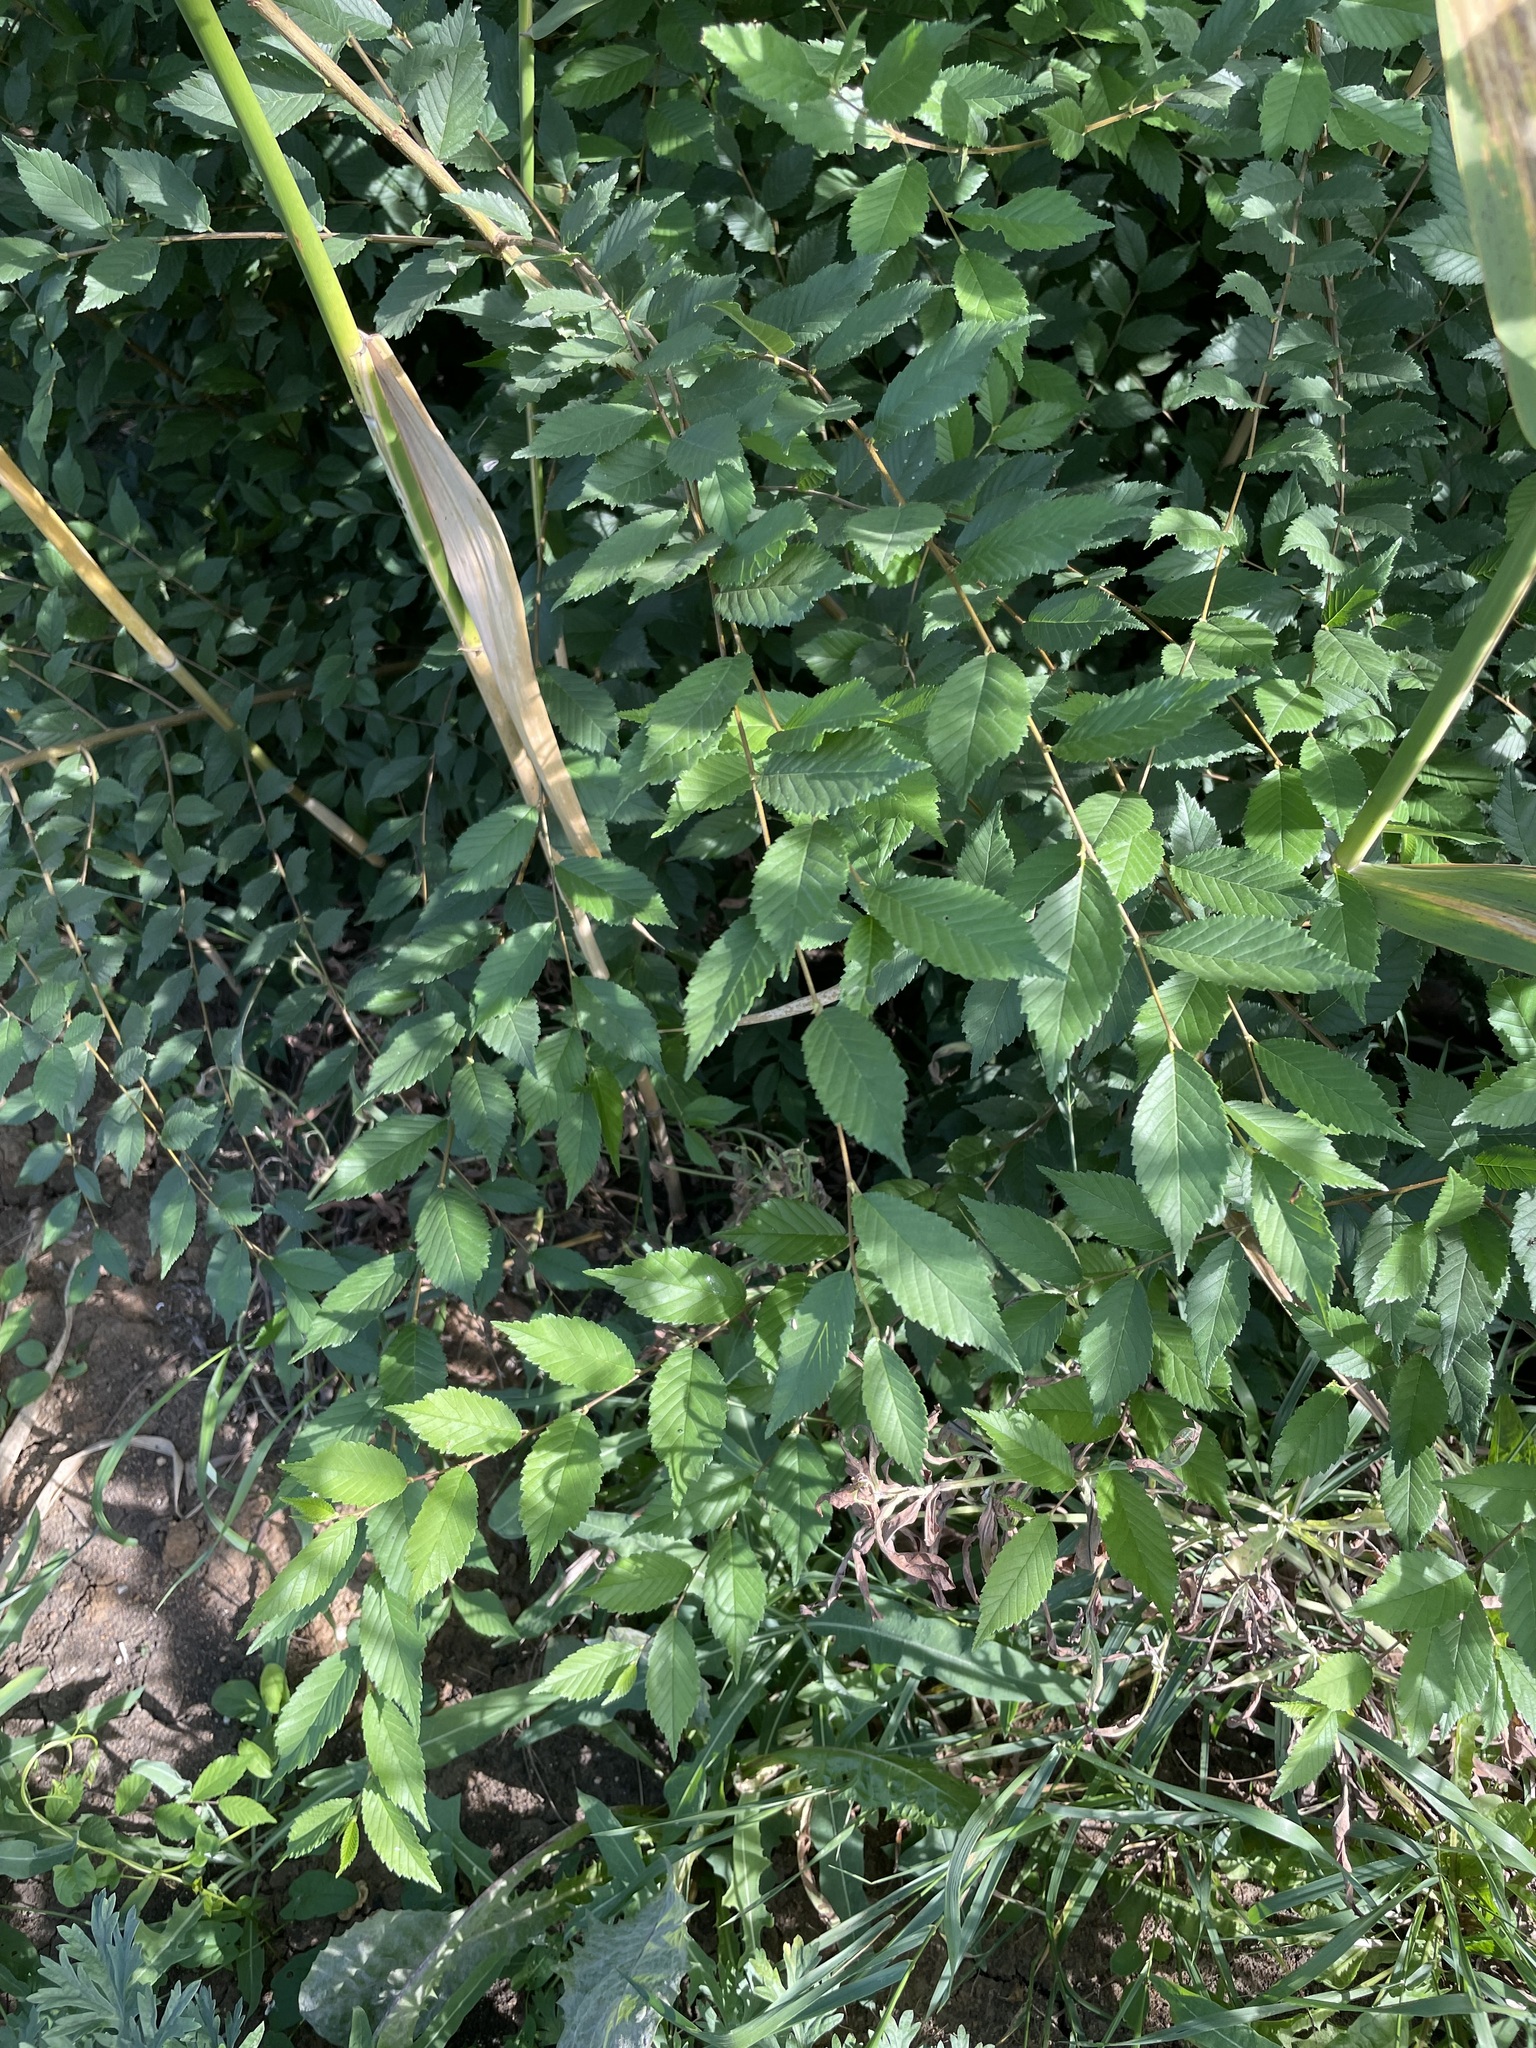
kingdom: Plantae
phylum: Tracheophyta
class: Magnoliopsida
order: Rosales
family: Ulmaceae
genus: Ulmus
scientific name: Ulmus pumila
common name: Siberian elm
